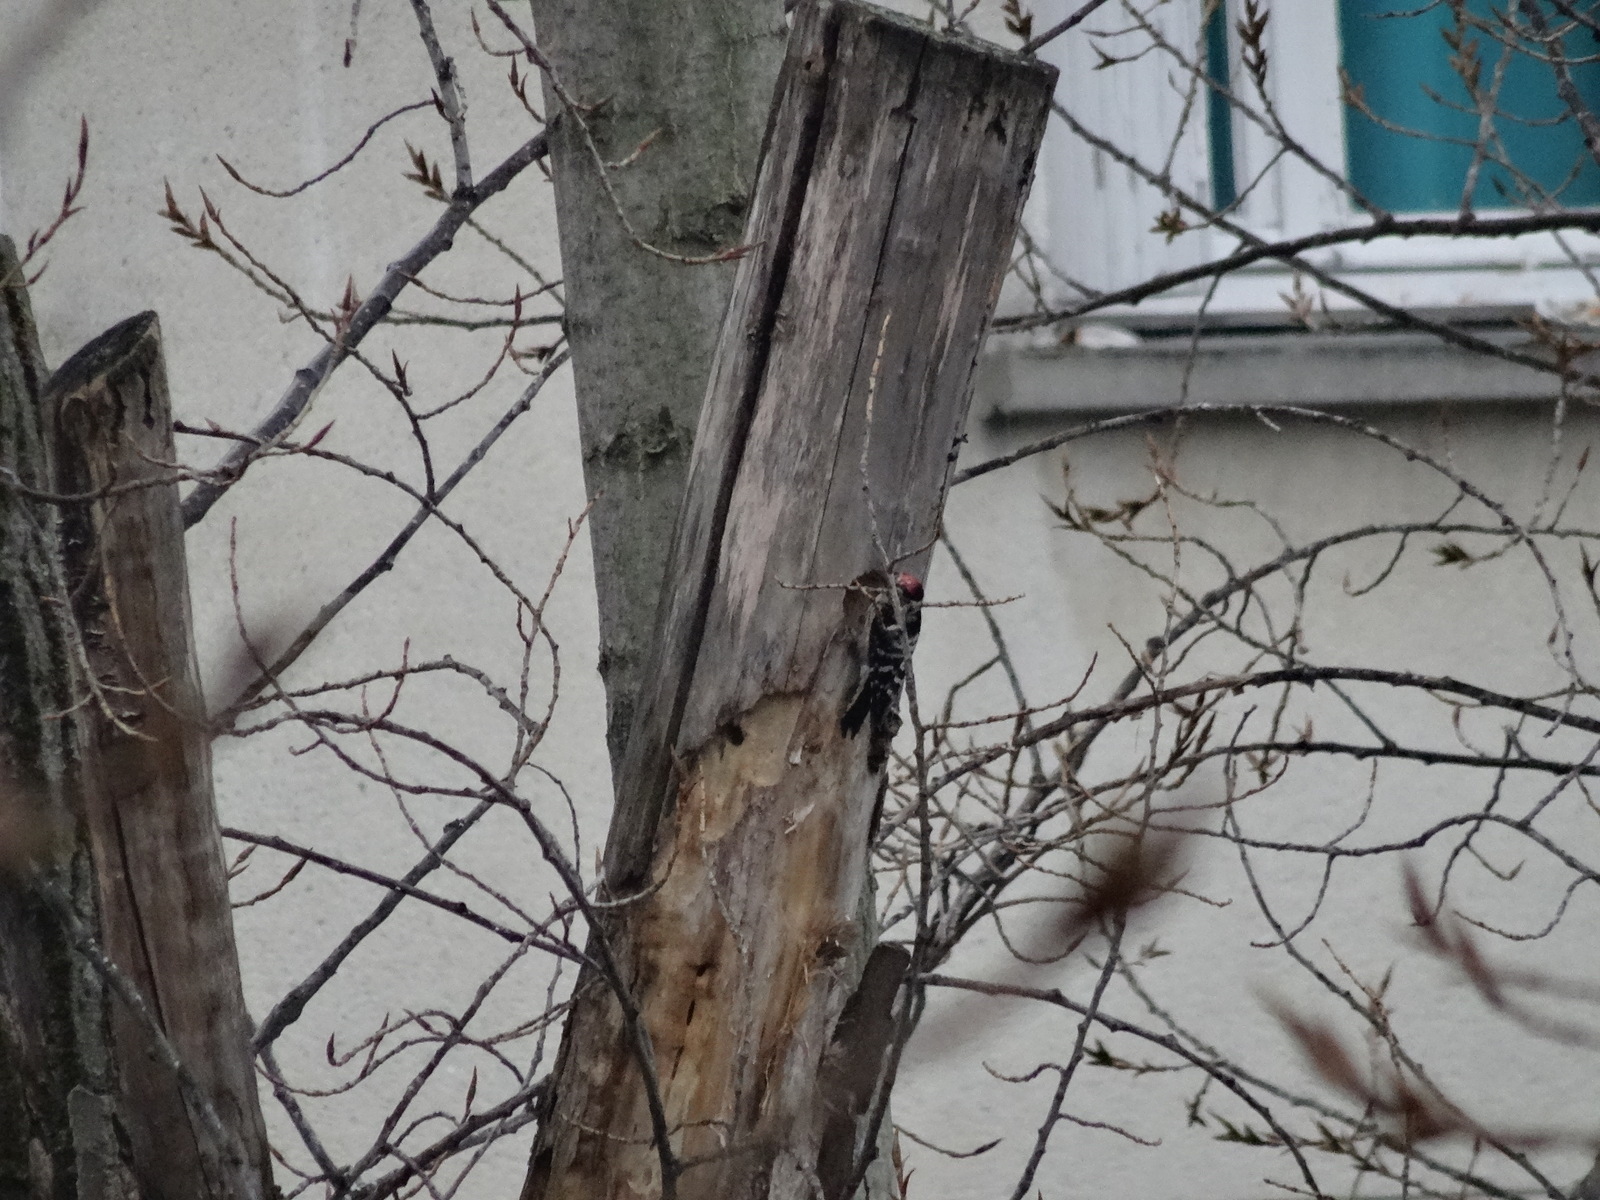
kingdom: Animalia
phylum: Chordata
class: Aves
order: Piciformes
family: Picidae
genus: Dryobates
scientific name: Dryobates minor
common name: Lesser spotted woodpecker
